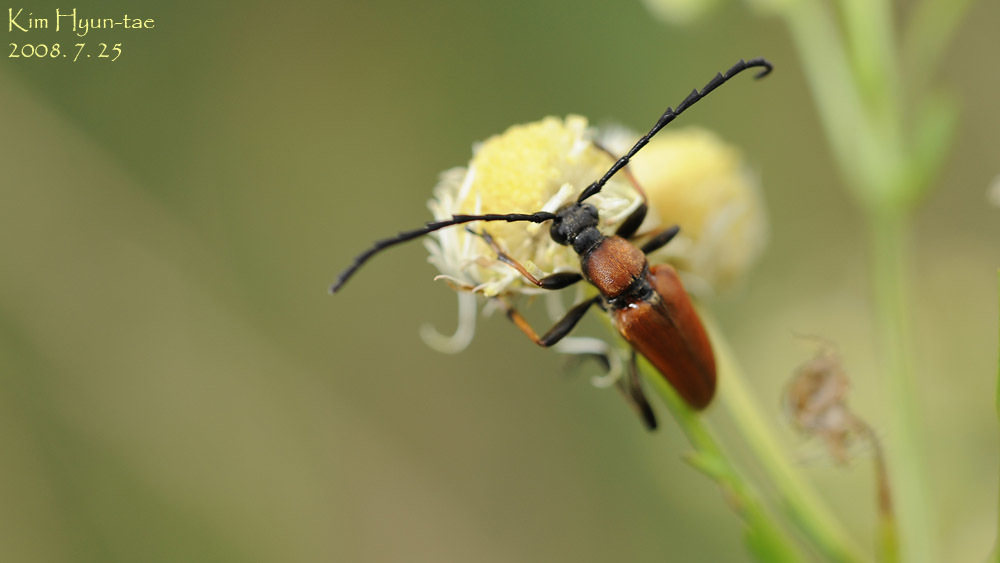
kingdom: Animalia
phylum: Arthropoda
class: Insecta
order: Coleoptera
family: Cerambycidae
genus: Stictoleptura
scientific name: Stictoleptura dichroa
